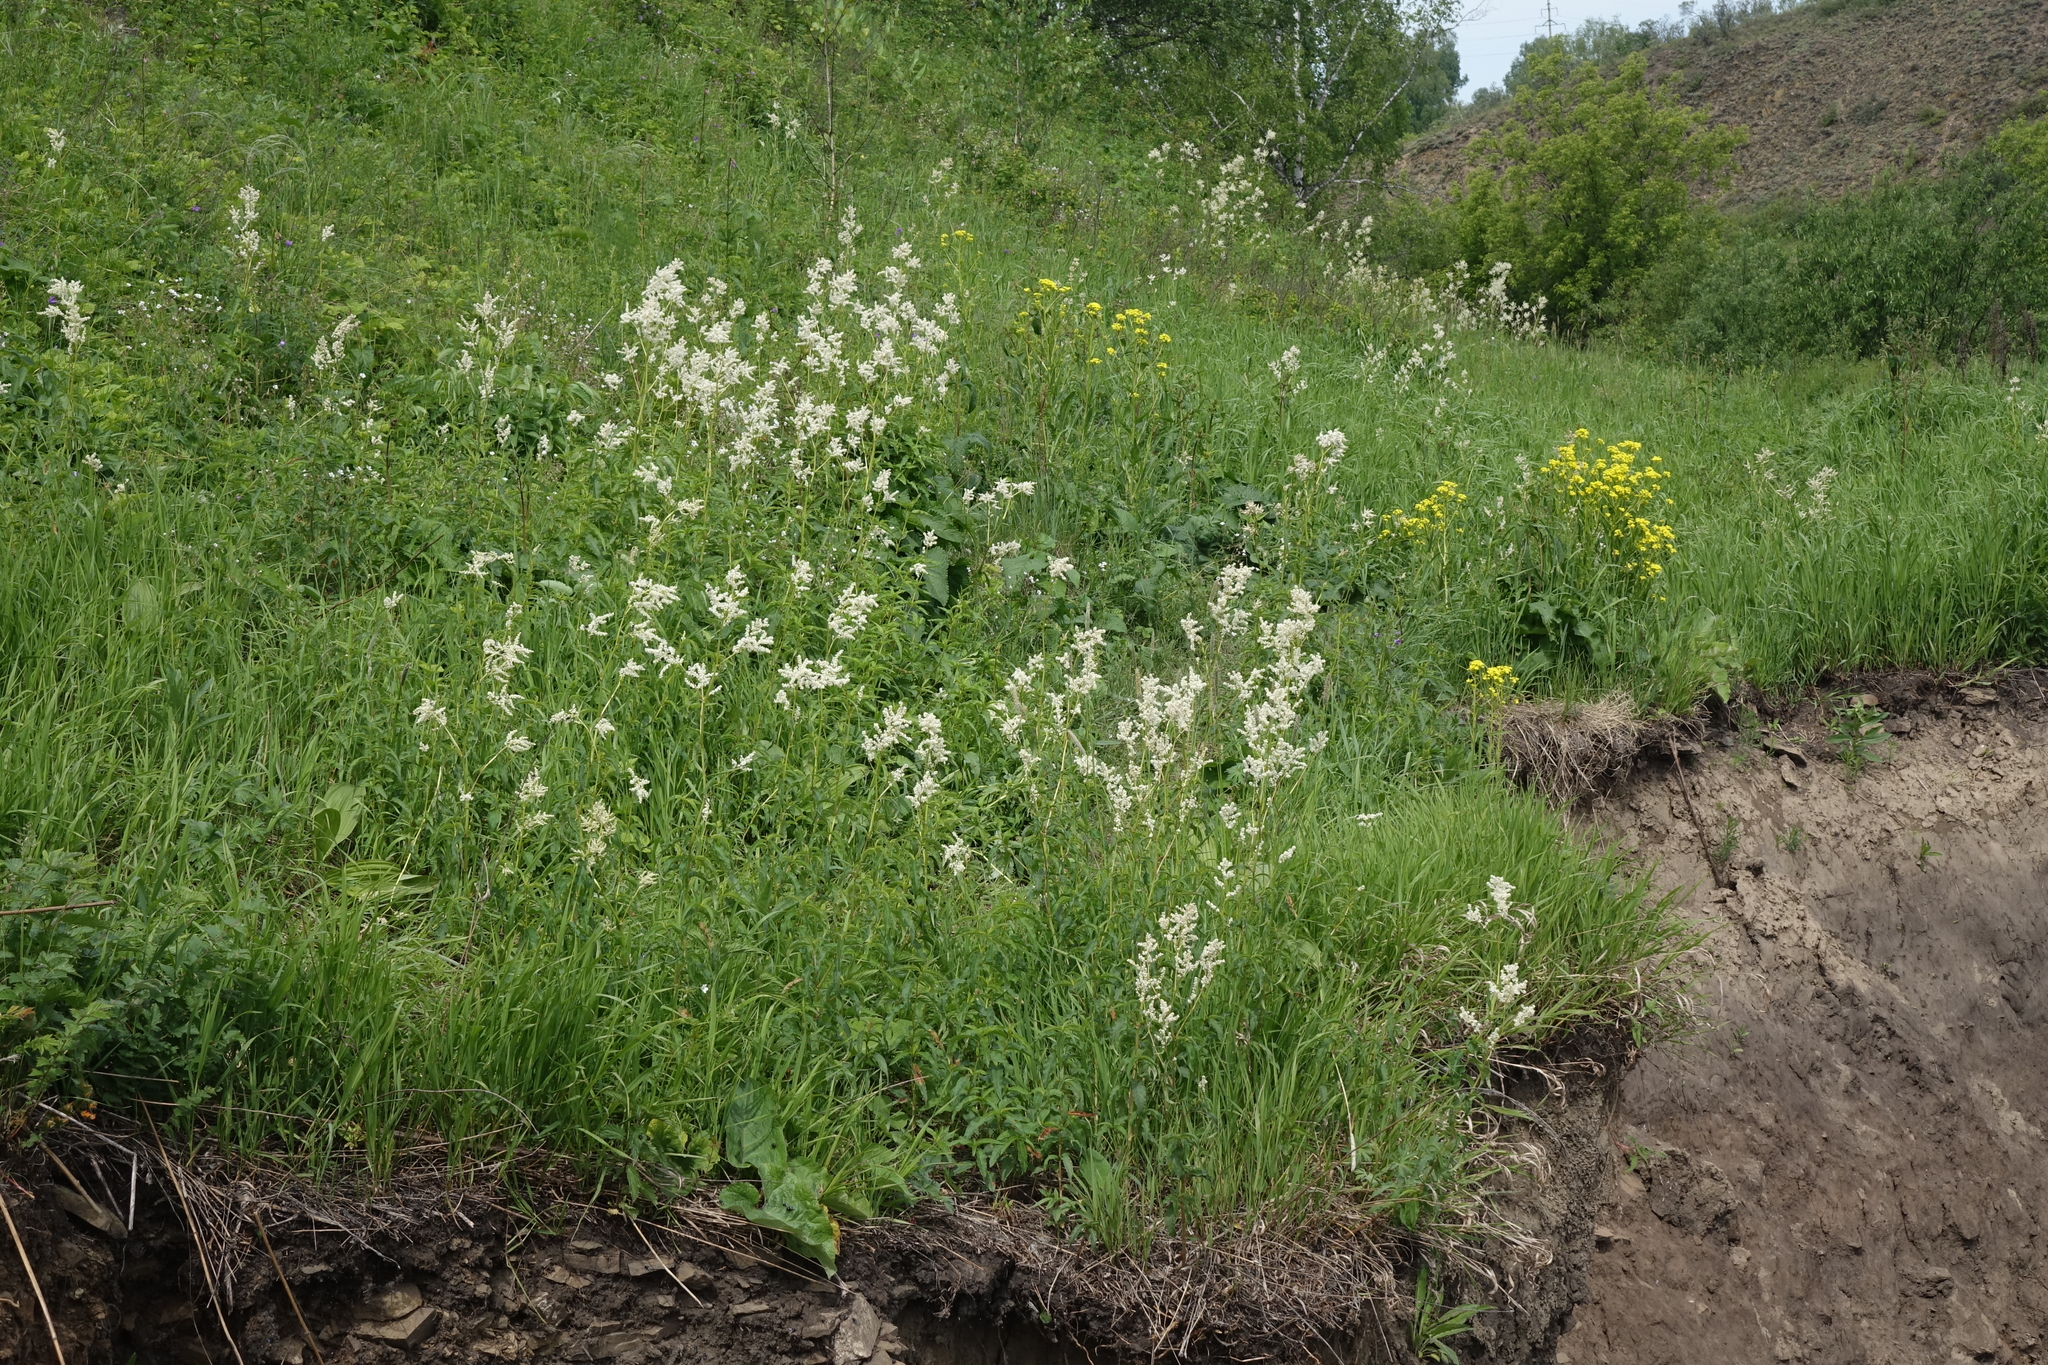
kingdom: Plantae
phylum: Tracheophyta
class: Magnoliopsida
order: Caryophyllales
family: Polygonaceae
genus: Koenigia
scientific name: Koenigia alpina
